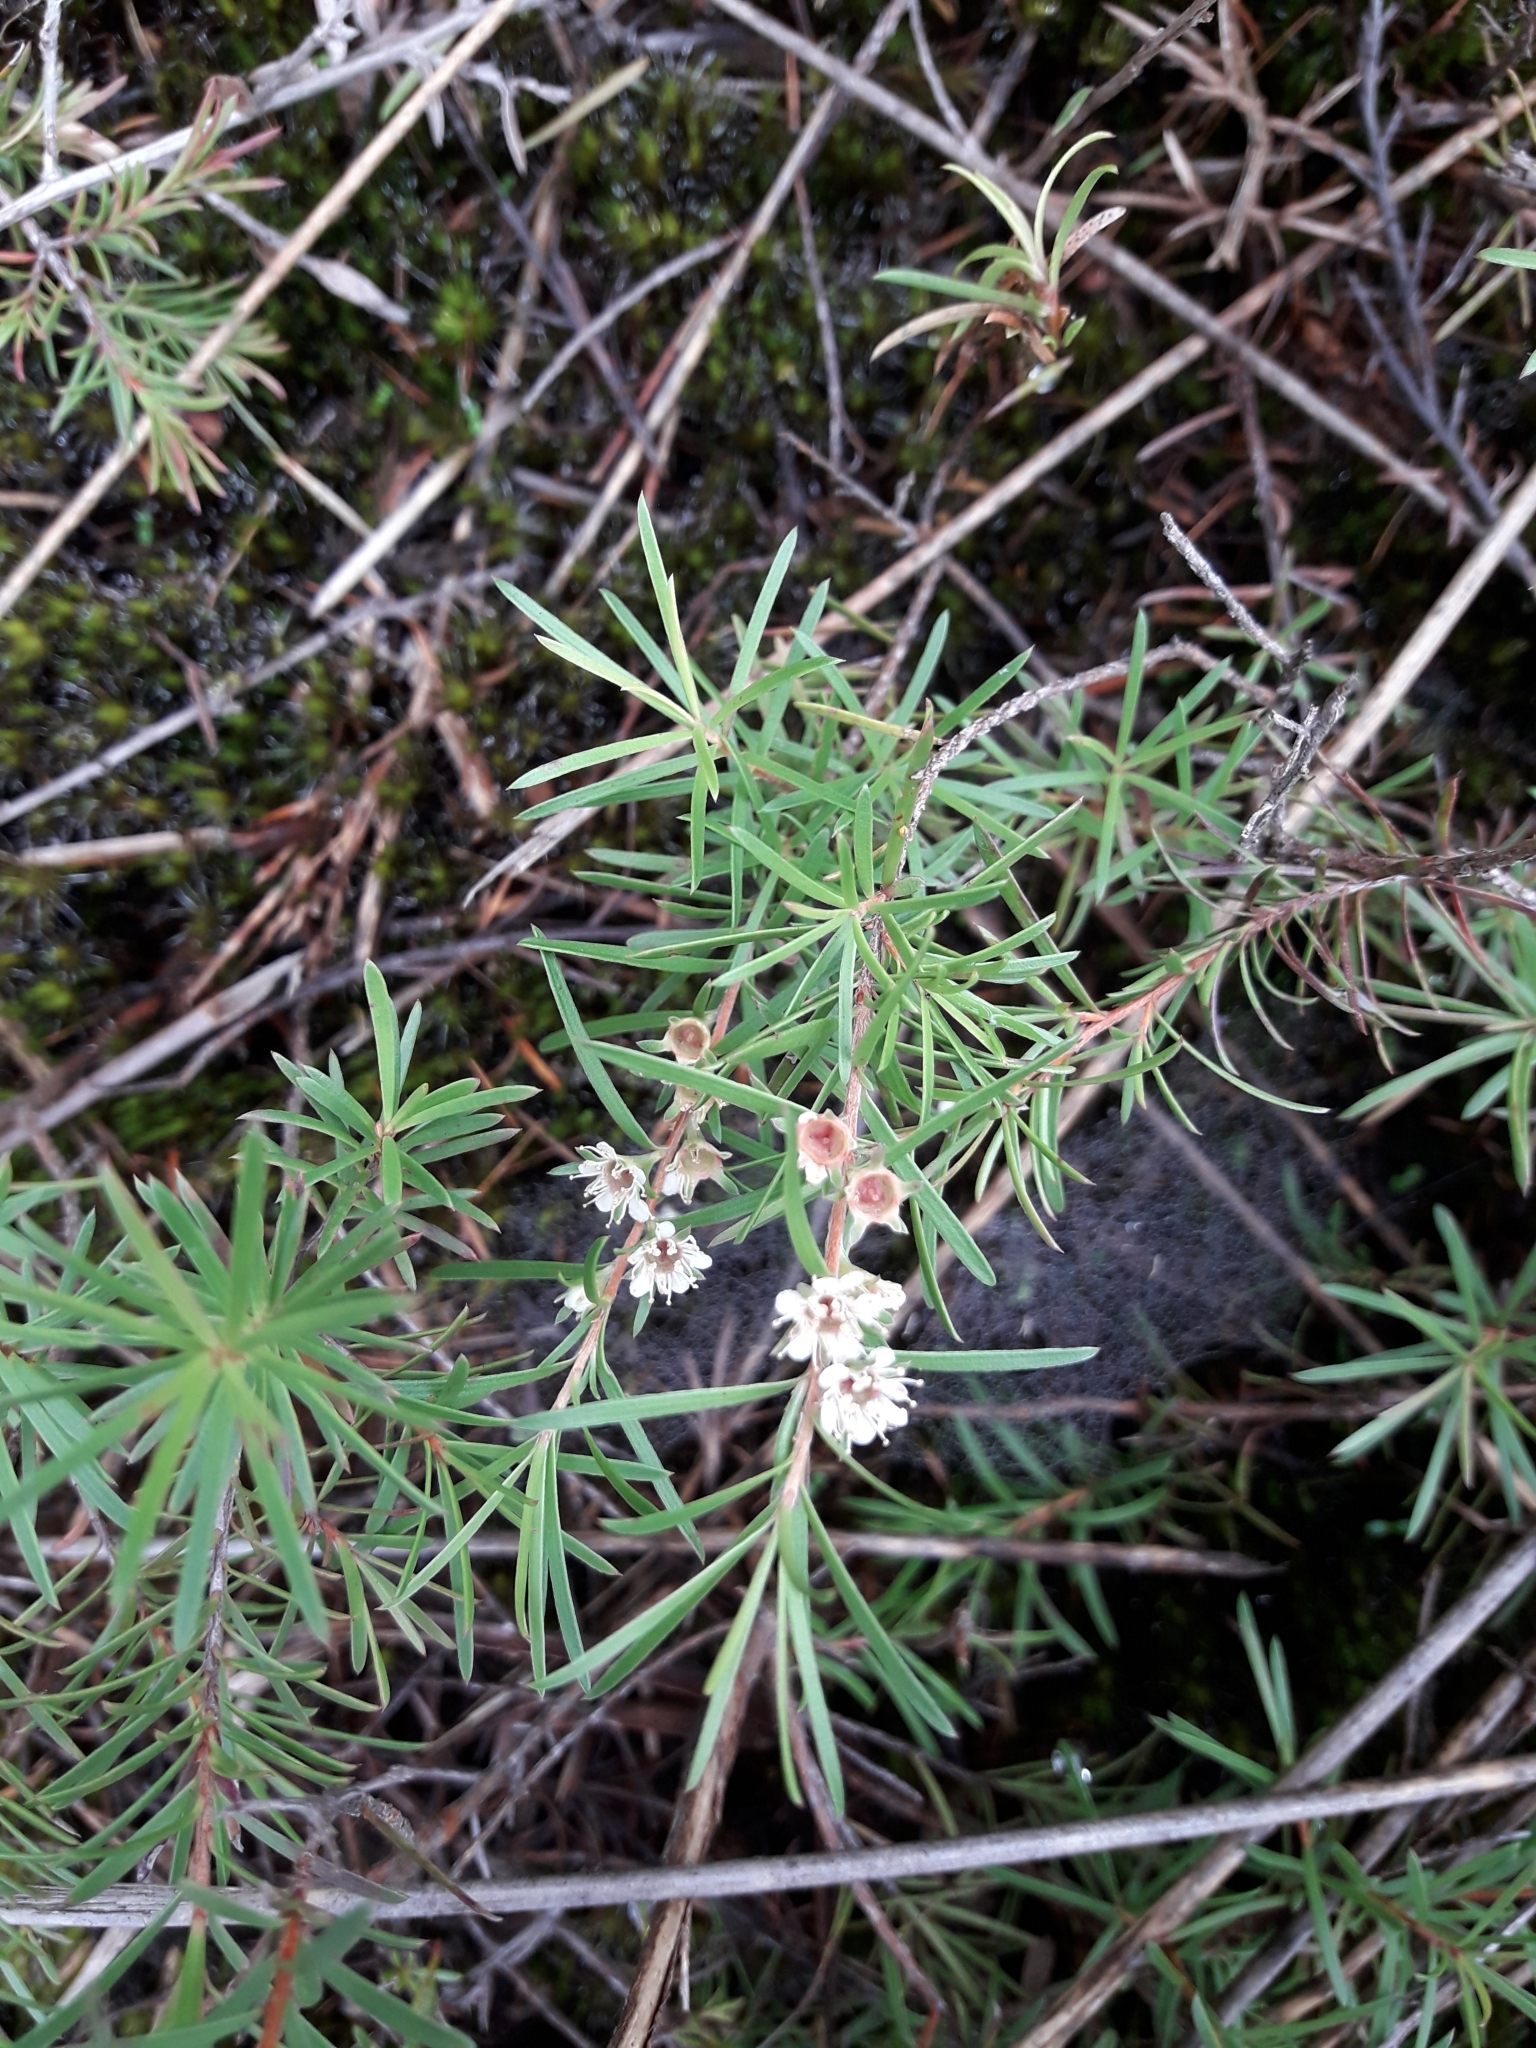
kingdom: Plantae
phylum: Tracheophyta
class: Magnoliopsida
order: Myrtales
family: Myrtaceae
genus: Kunzea
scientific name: Kunzea linearis
